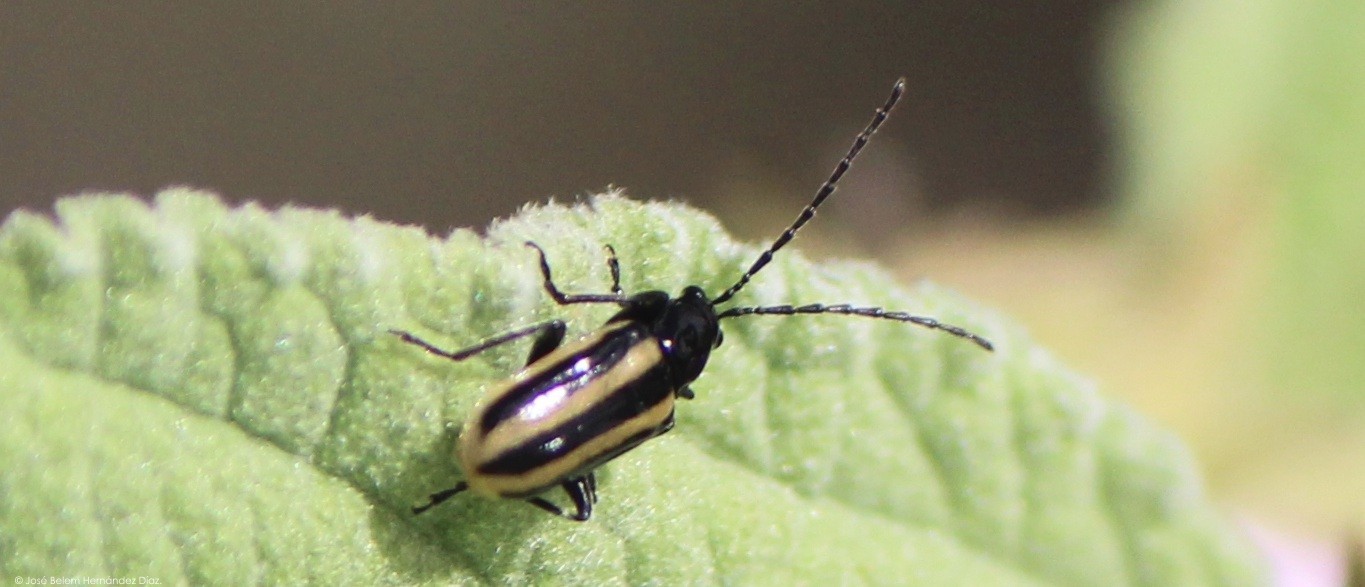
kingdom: Animalia
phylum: Arthropoda
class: Insecta
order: Coleoptera
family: Chrysomelidae
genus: Diabrotica
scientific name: Diabrotica lemniscata
